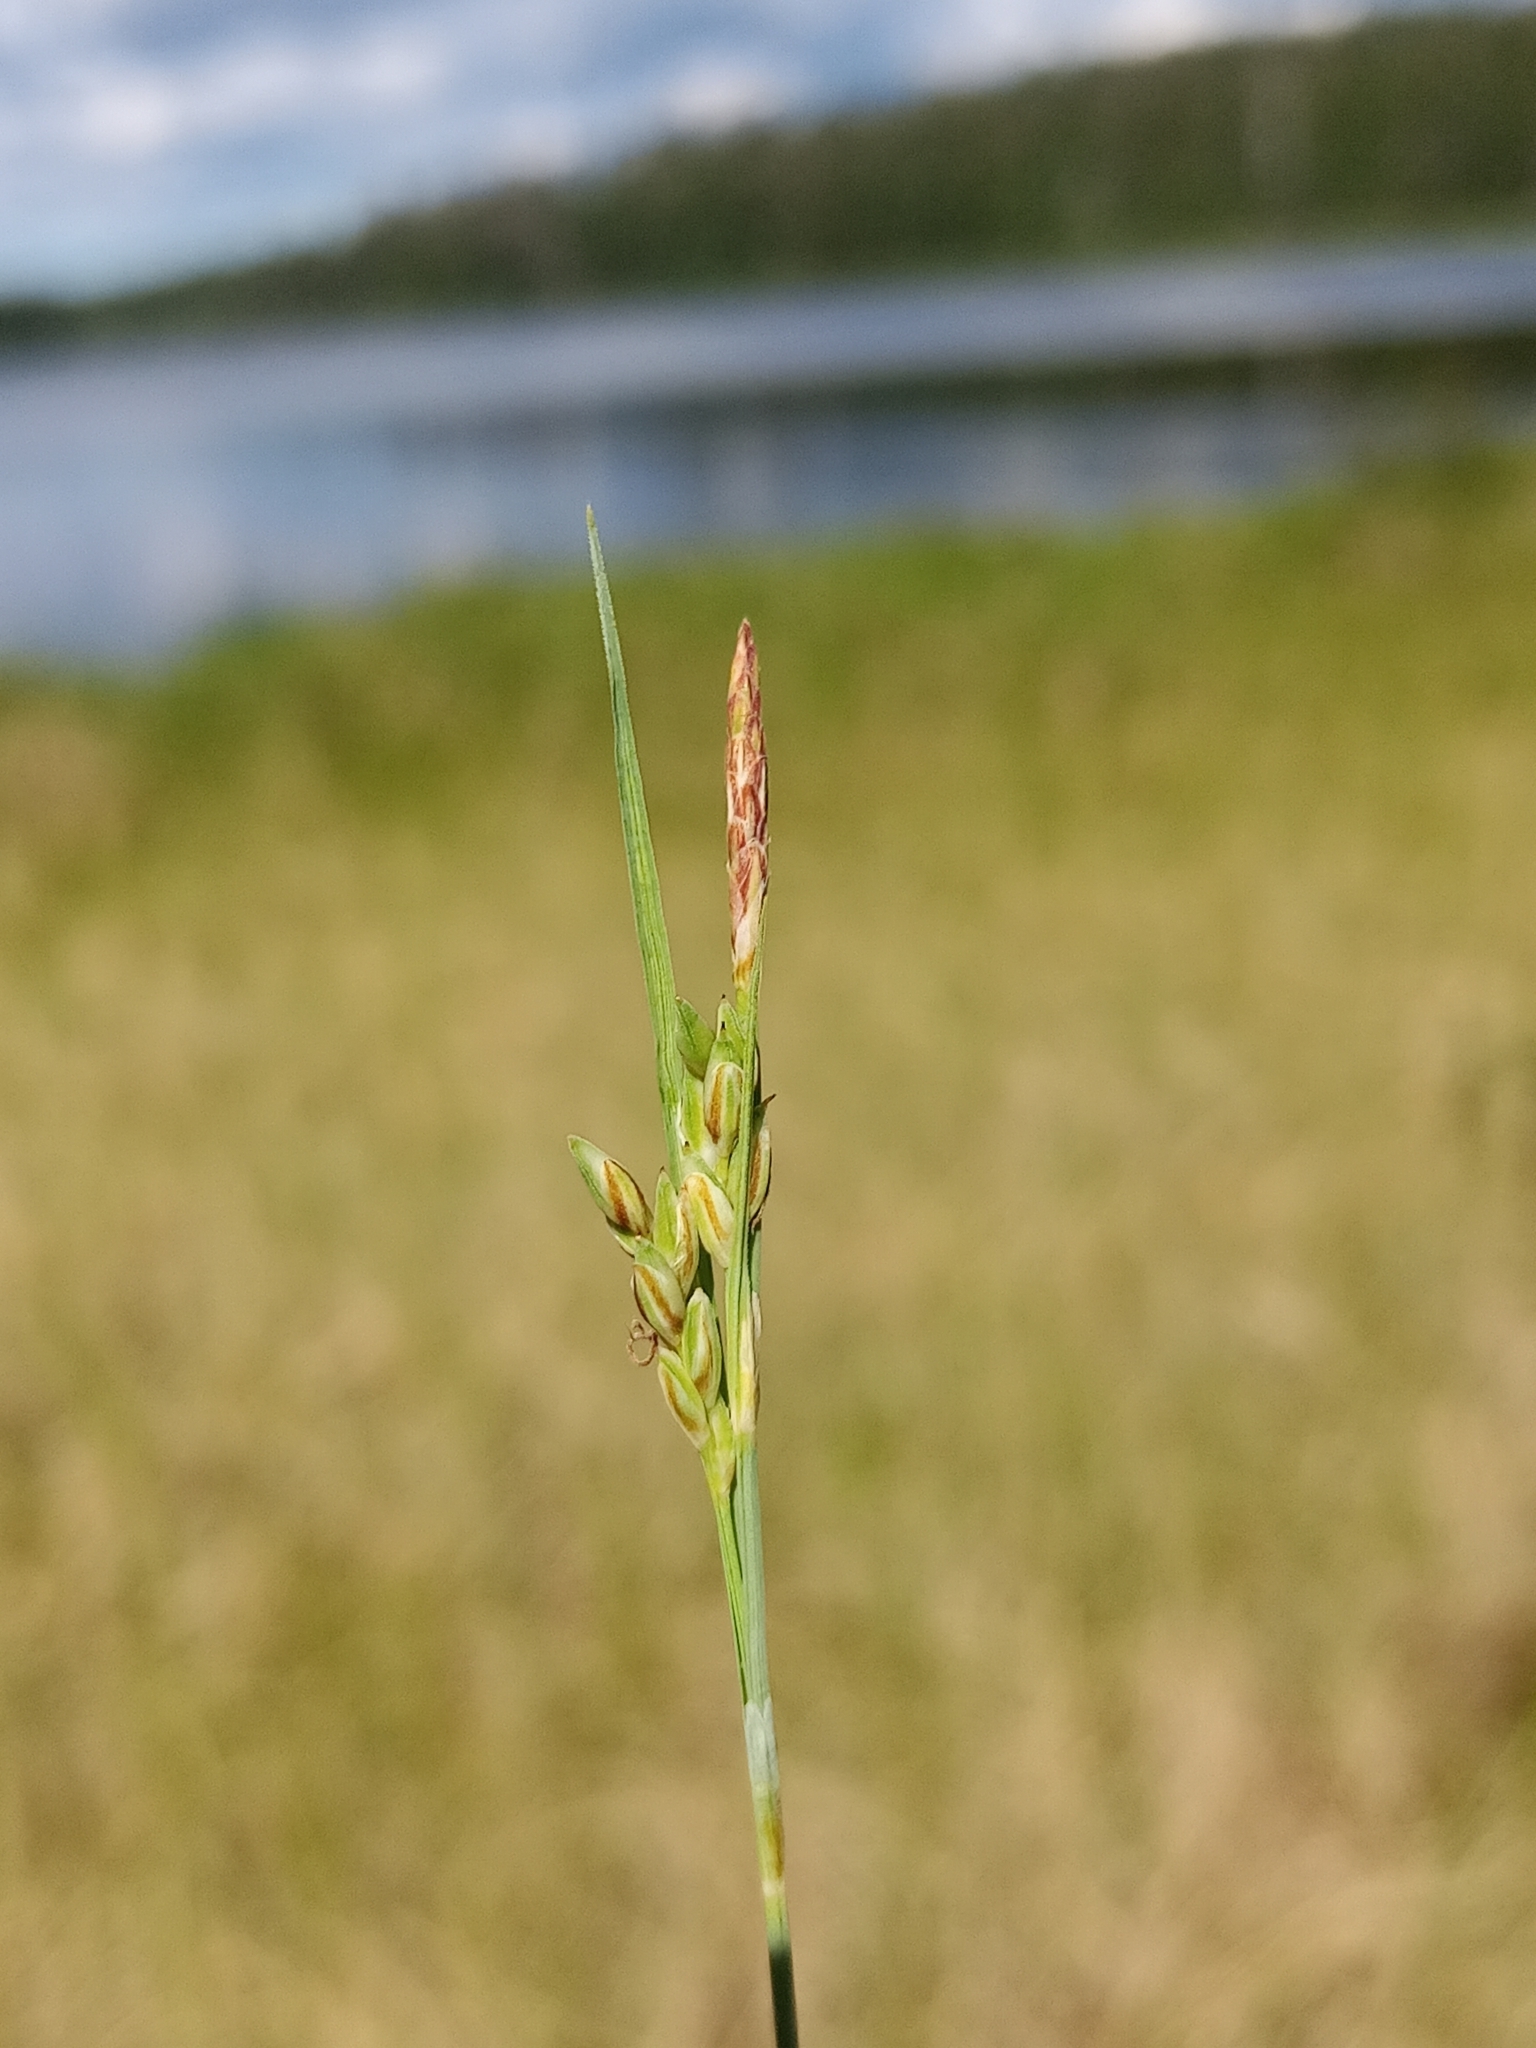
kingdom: Plantae
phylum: Tracheophyta
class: Liliopsida
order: Poales
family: Cyperaceae
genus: Carex
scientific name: Carex livida
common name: Livid sedge
